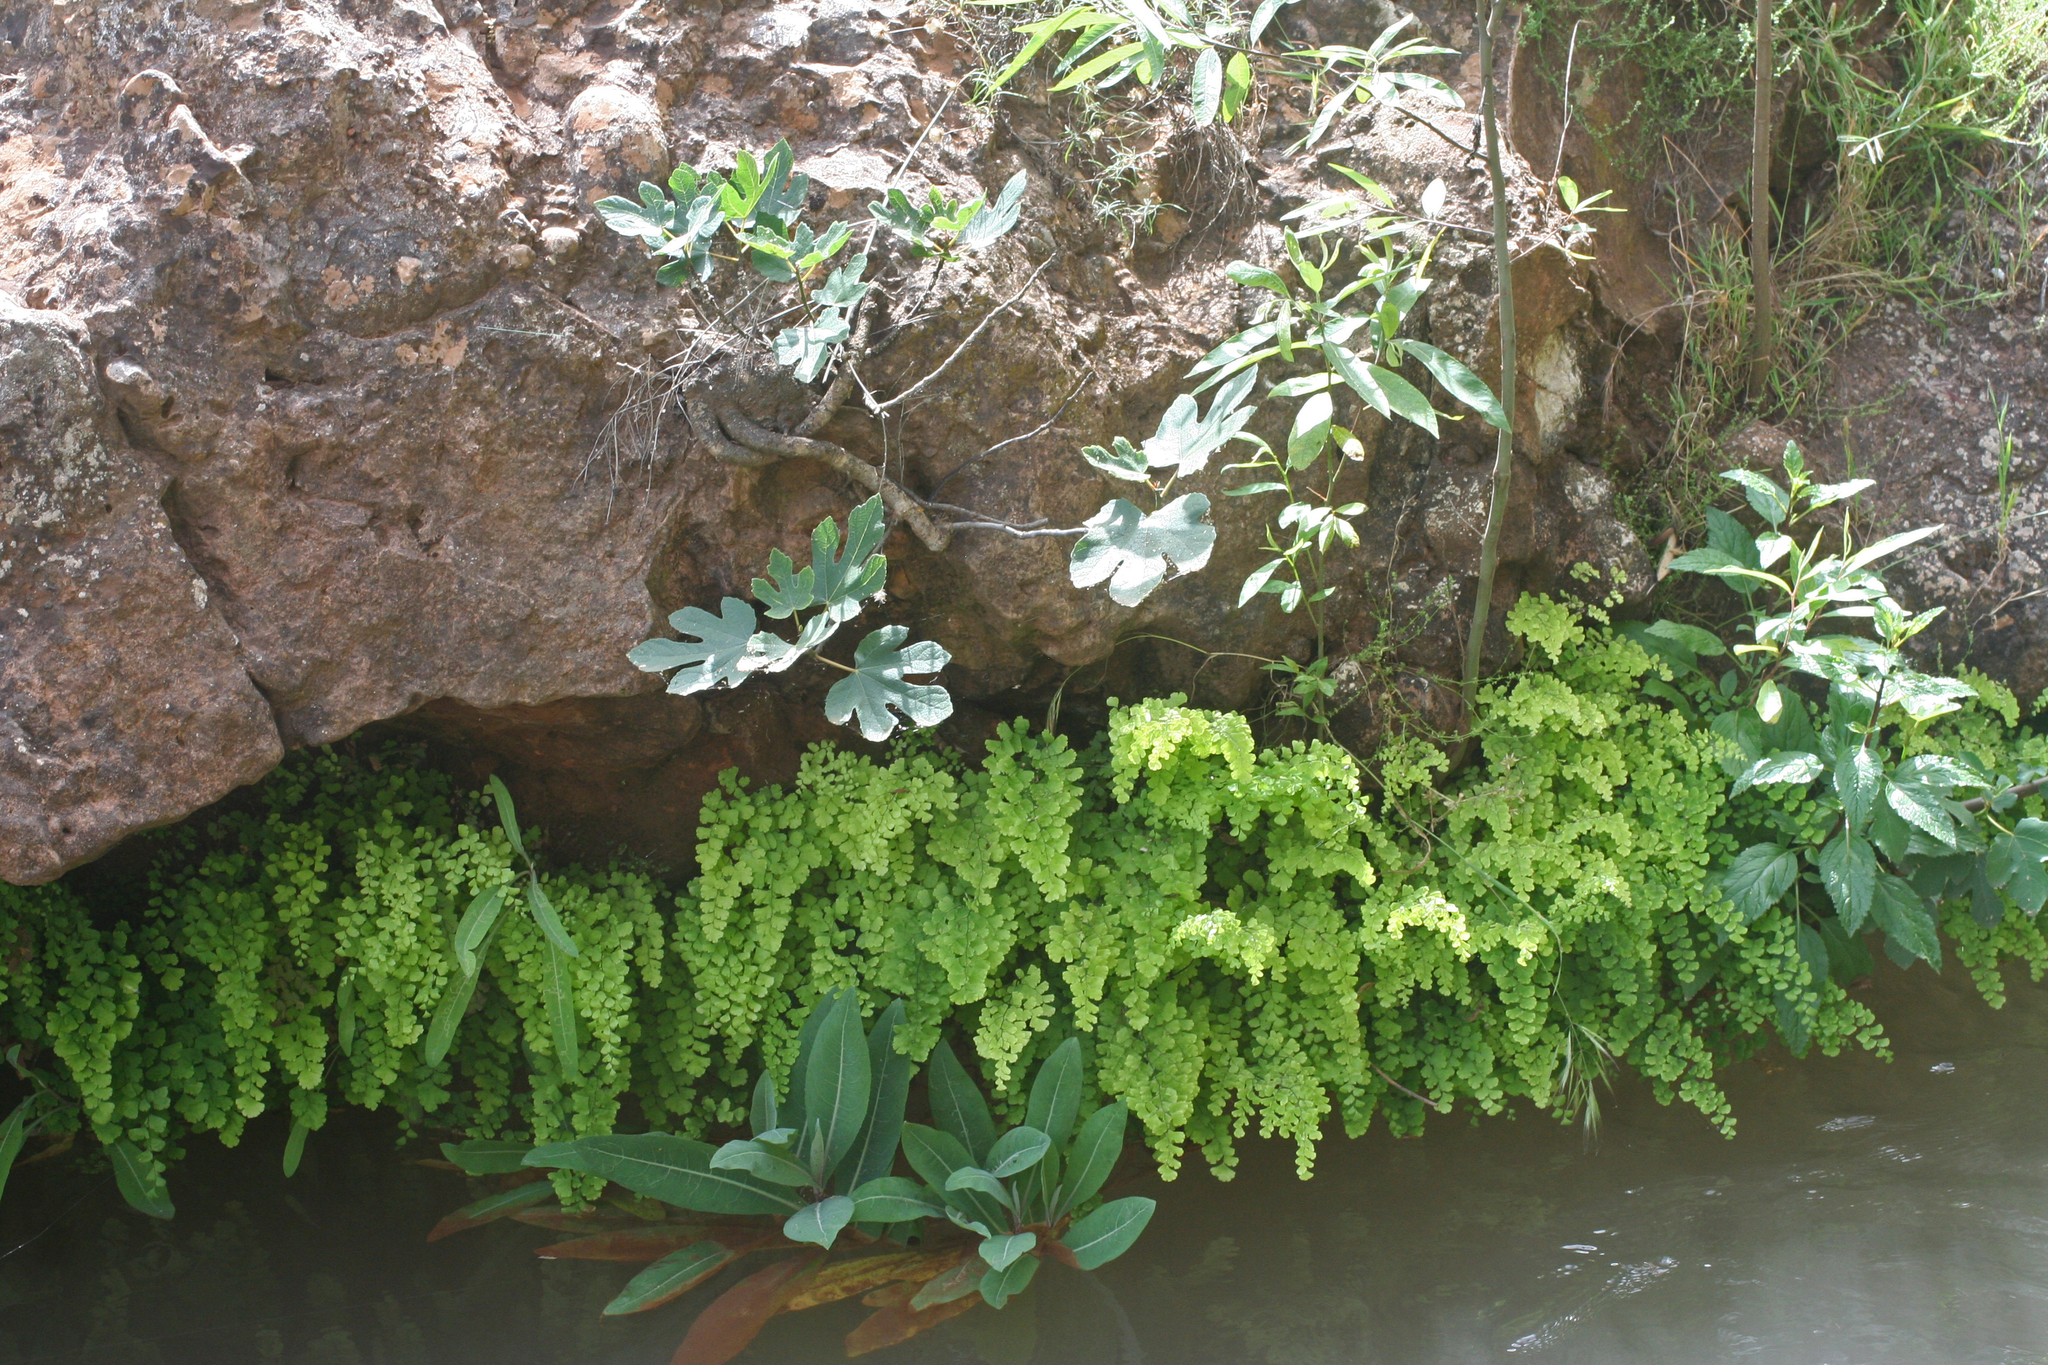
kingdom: Plantae
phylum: Tracheophyta
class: Polypodiopsida
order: Polypodiales
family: Pteridaceae
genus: Adiantum
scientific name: Adiantum capillus-veneris
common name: Maidenhair fern
